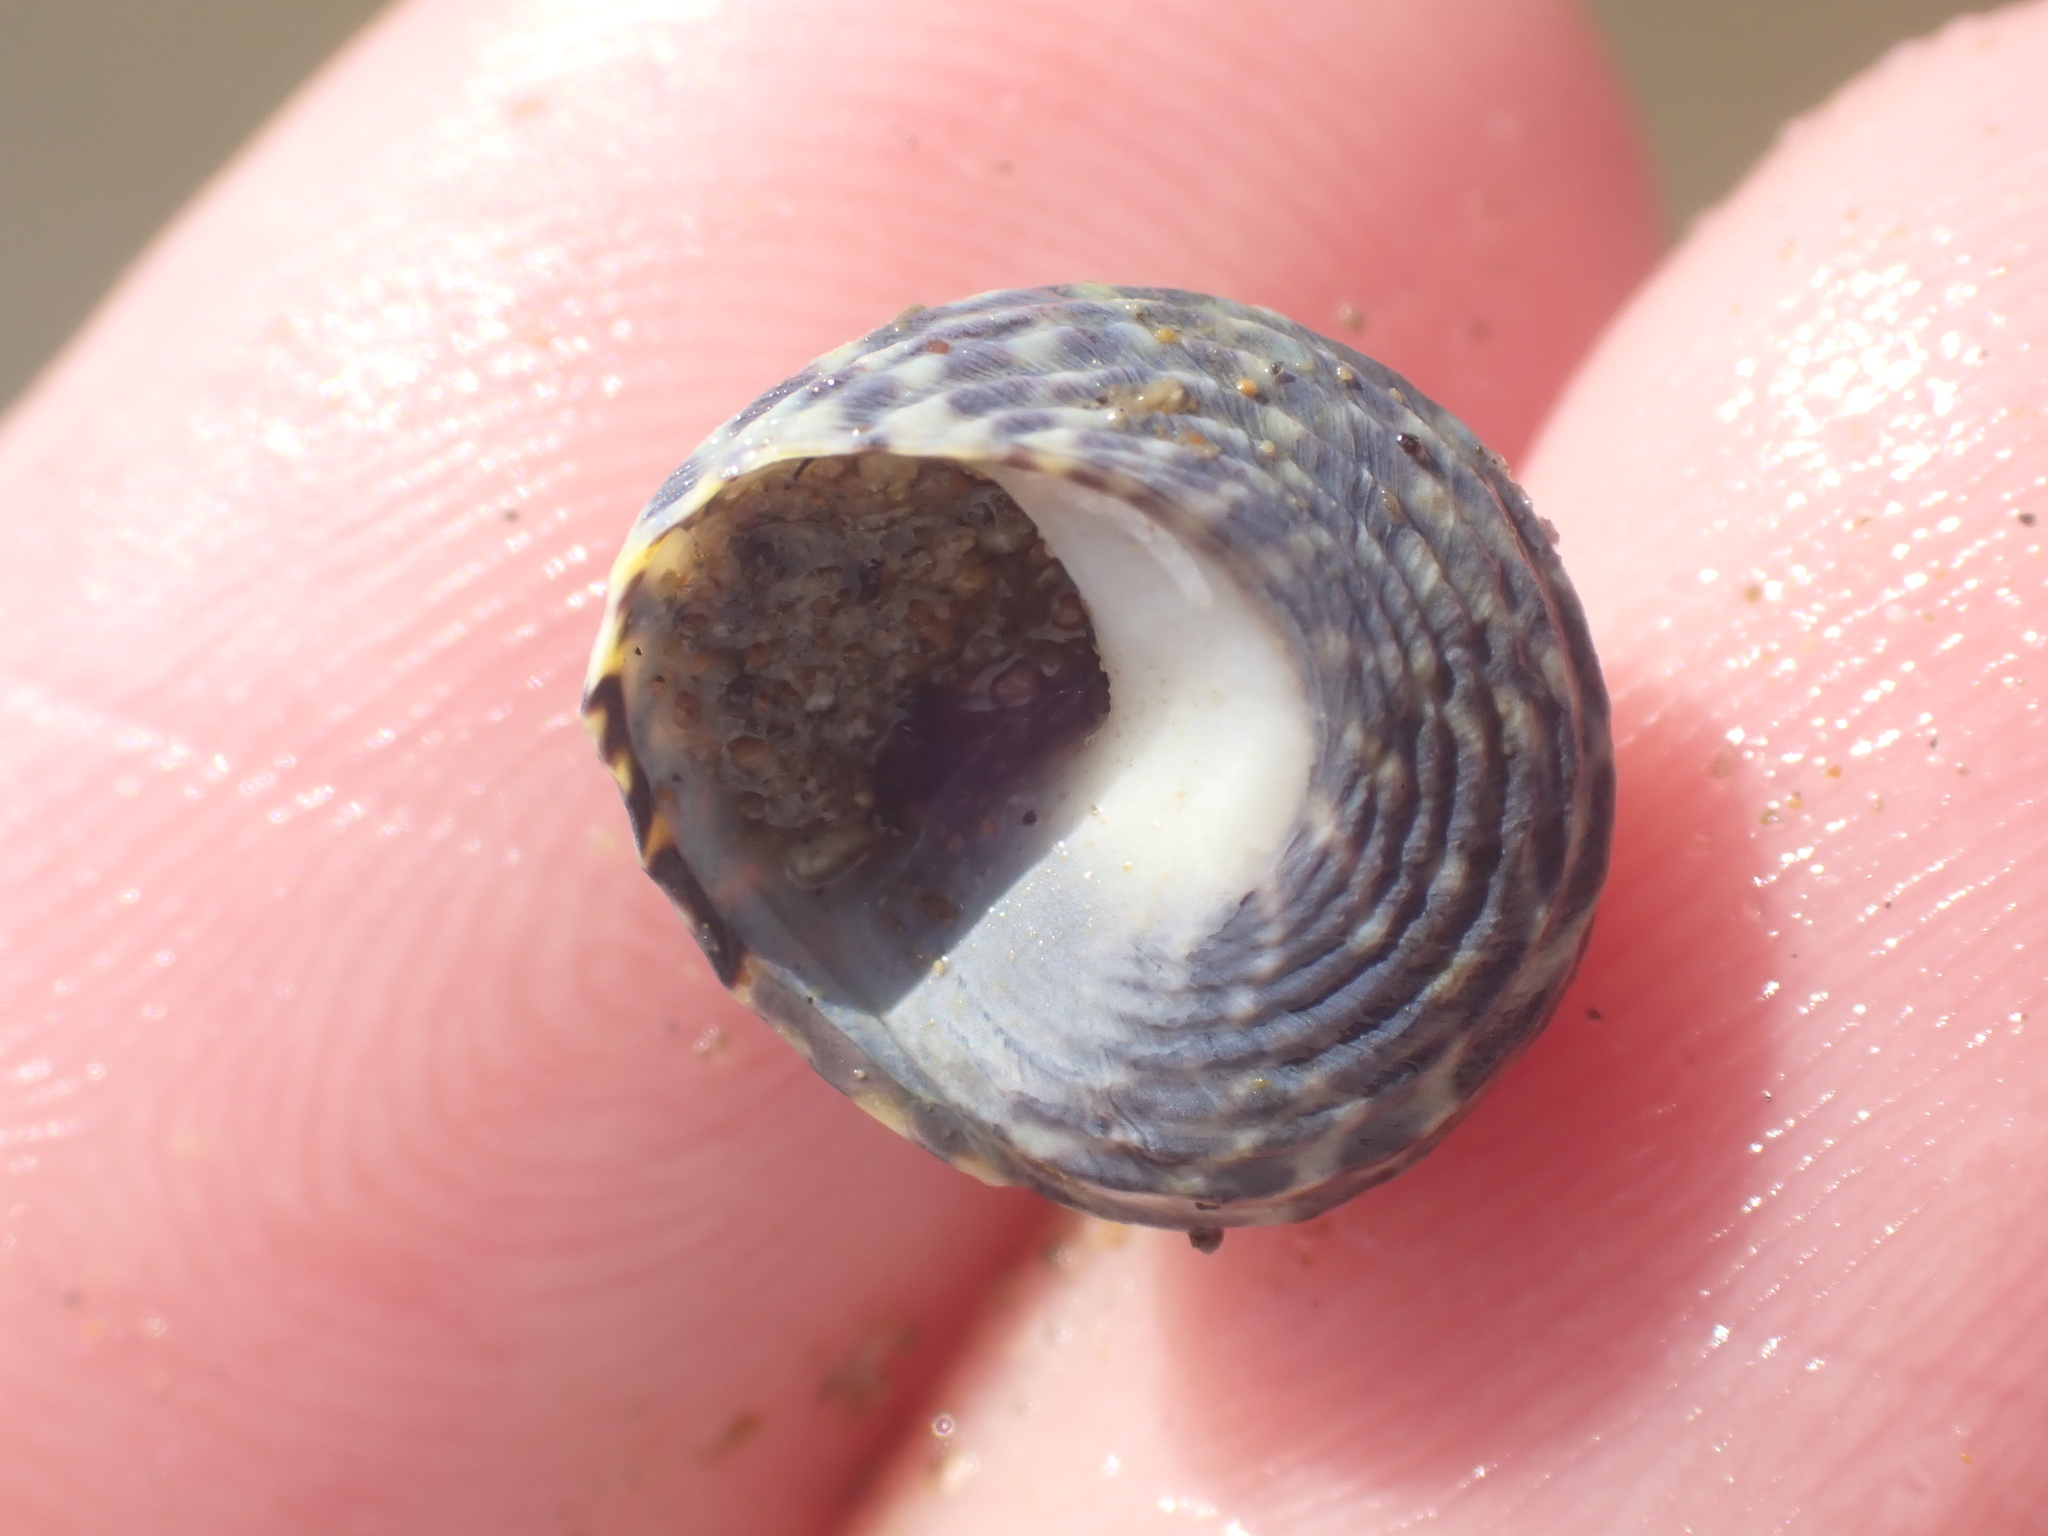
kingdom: Animalia
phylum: Mollusca
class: Gastropoda
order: Trochida
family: Trochidae
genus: Diloma
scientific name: Diloma subrostratum
